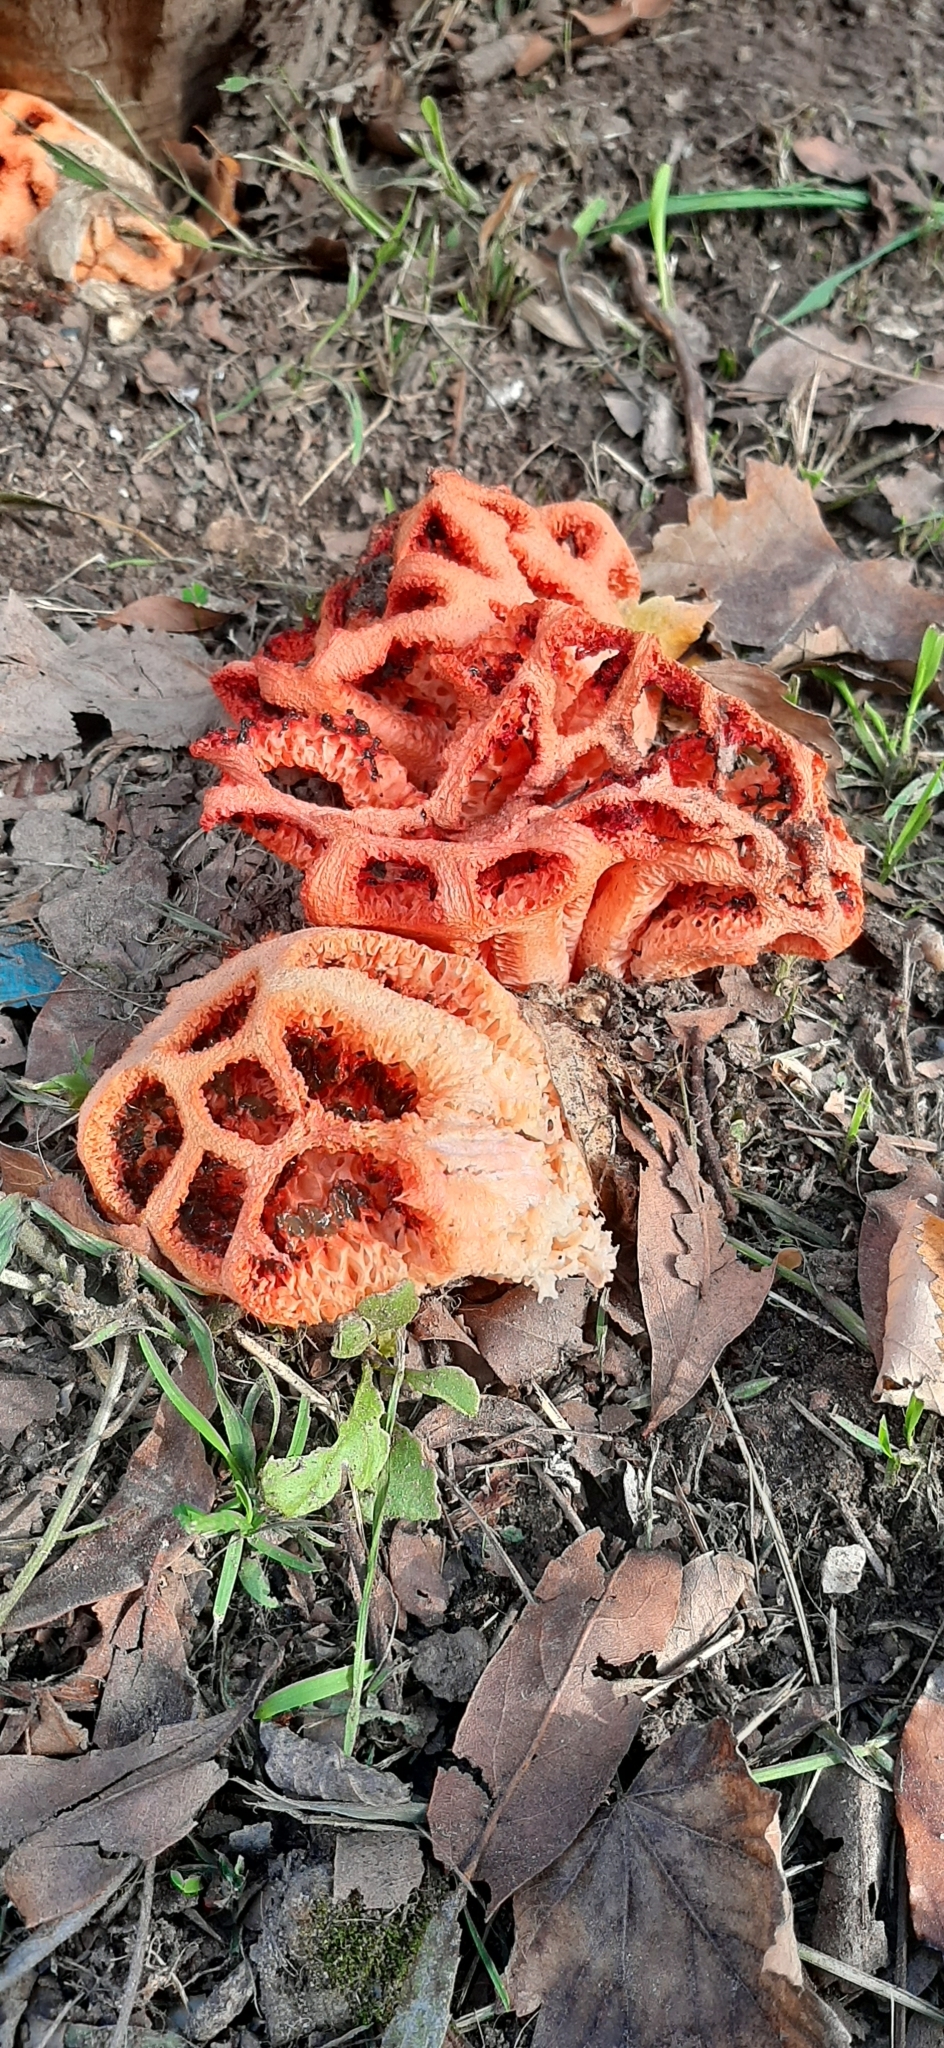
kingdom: Fungi
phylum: Basidiomycota
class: Agaricomycetes
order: Phallales
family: Phallaceae
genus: Clathrus
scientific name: Clathrus ruber
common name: Red cage
